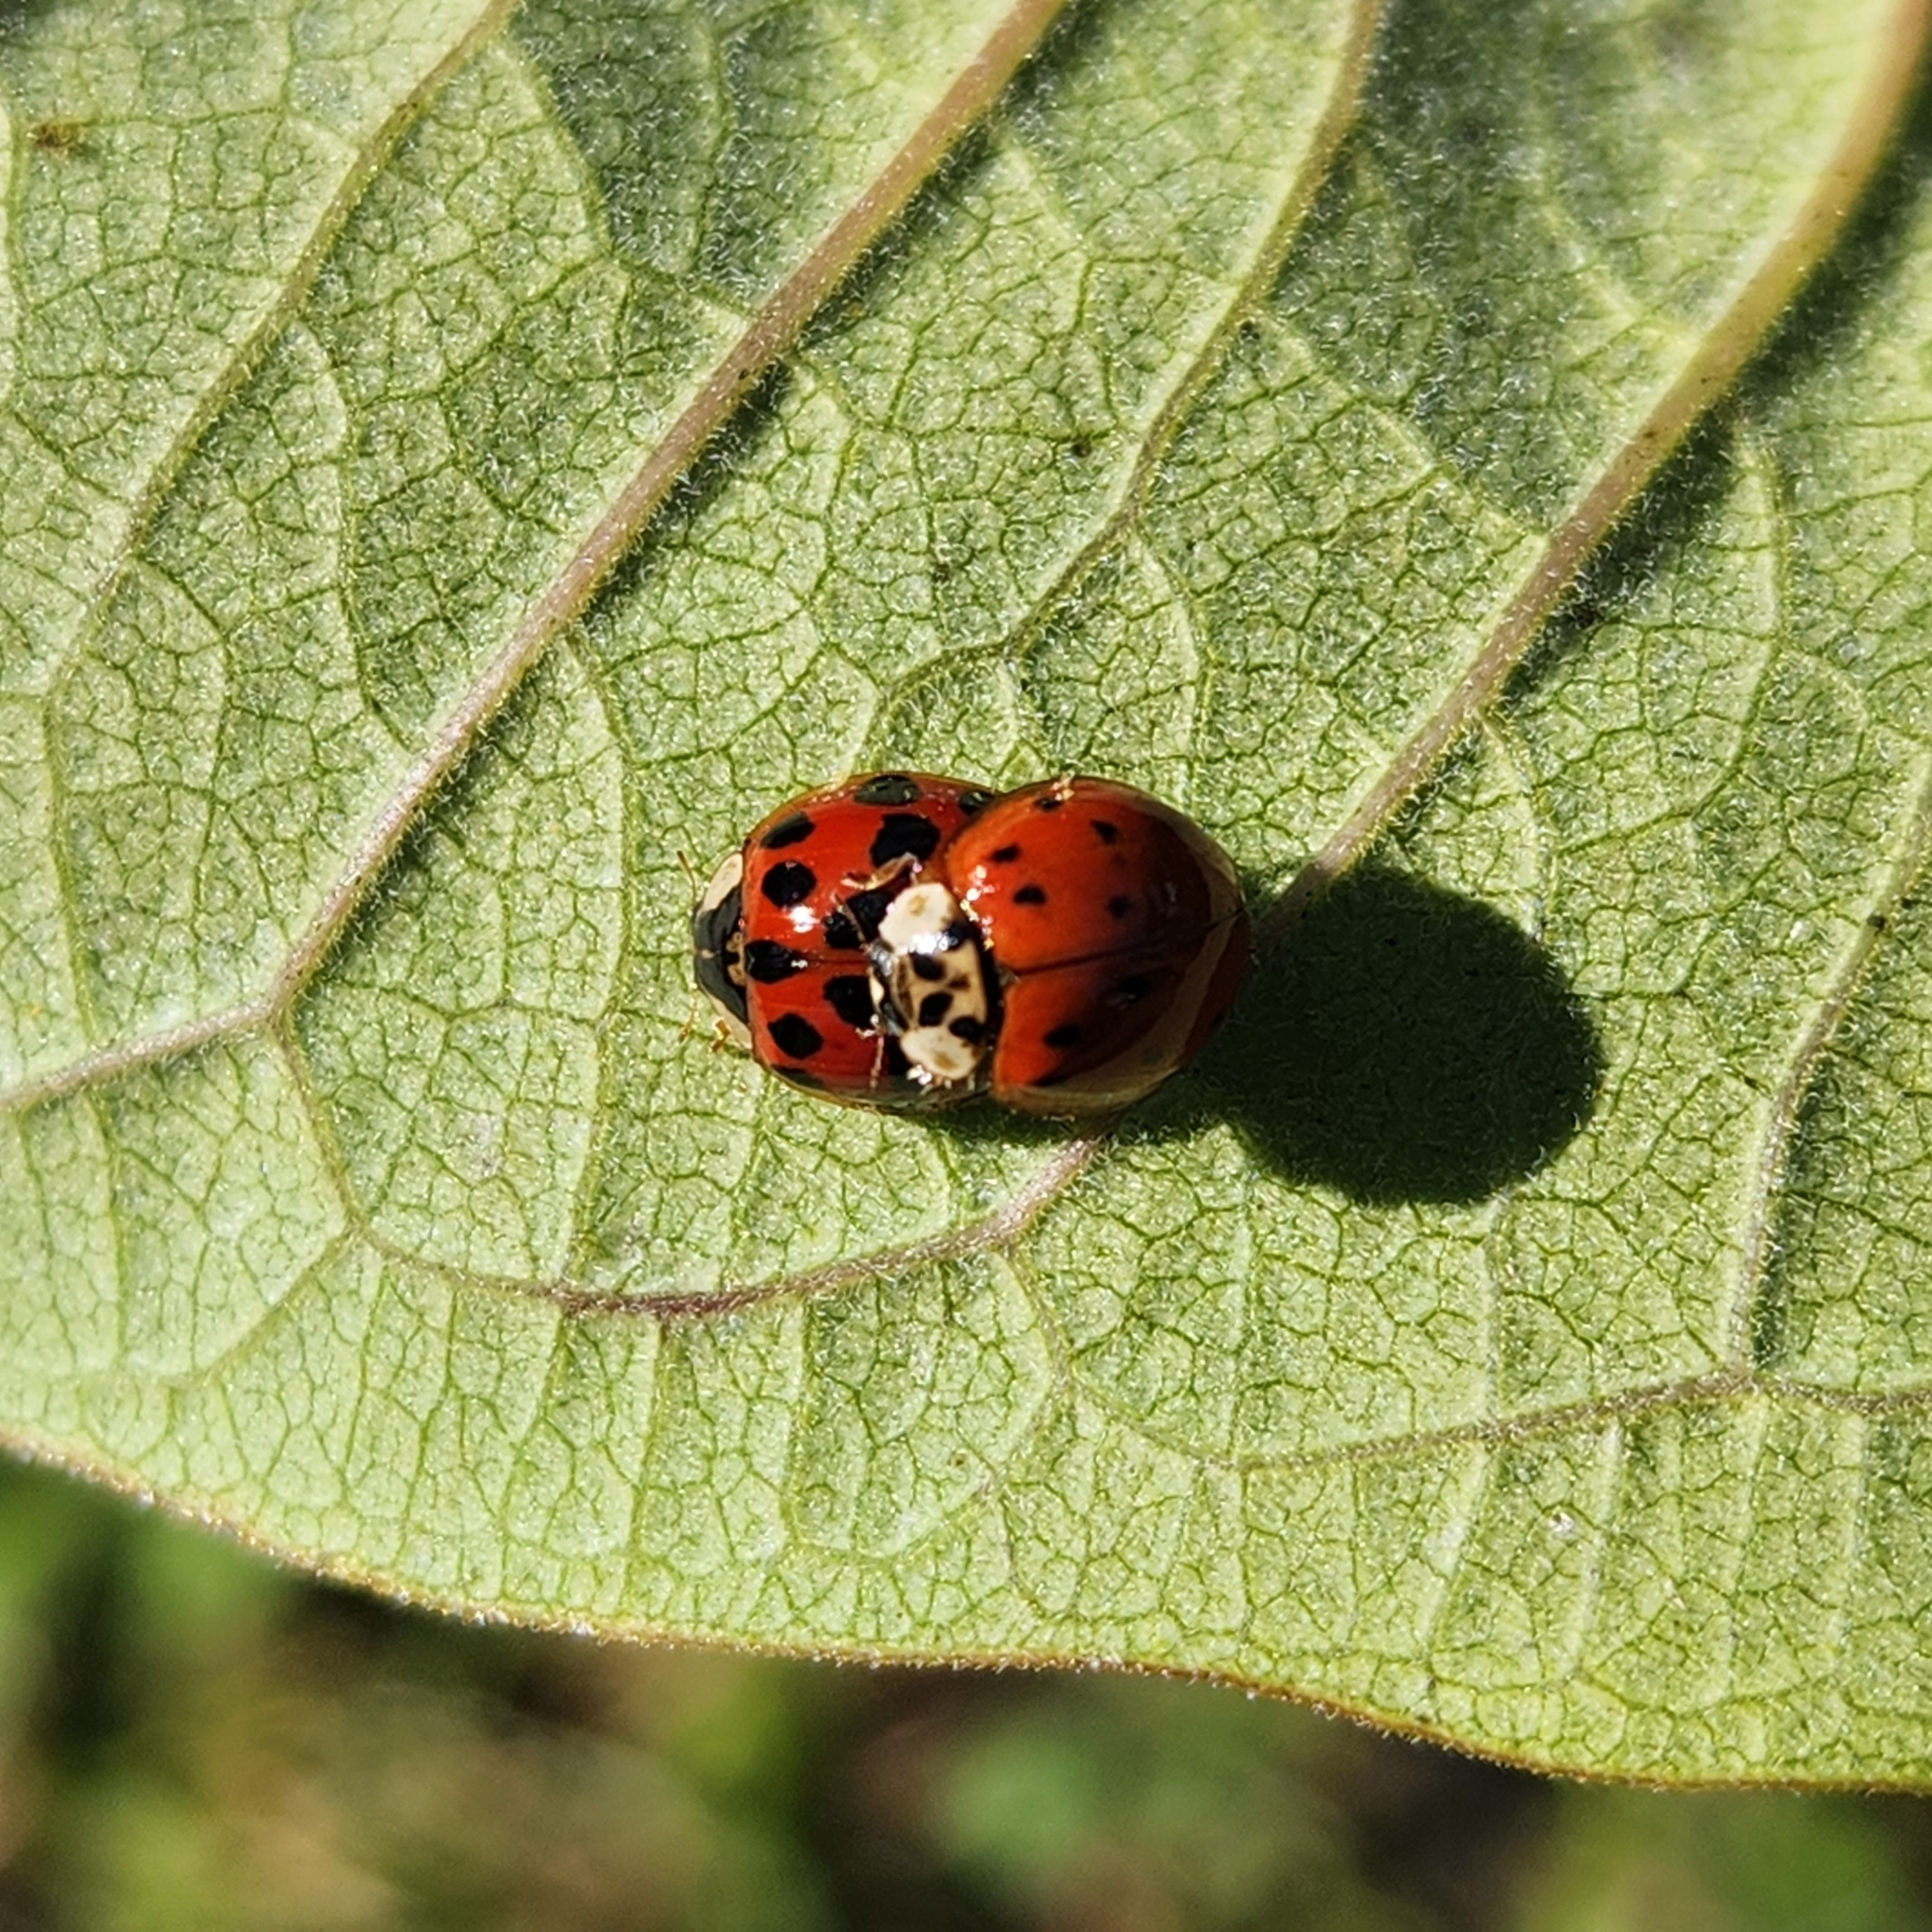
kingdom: Animalia
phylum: Arthropoda
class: Insecta
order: Coleoptera
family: Coccinellidae
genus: Harmonia
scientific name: Harmonia axyridis
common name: Harlequin ladybird
